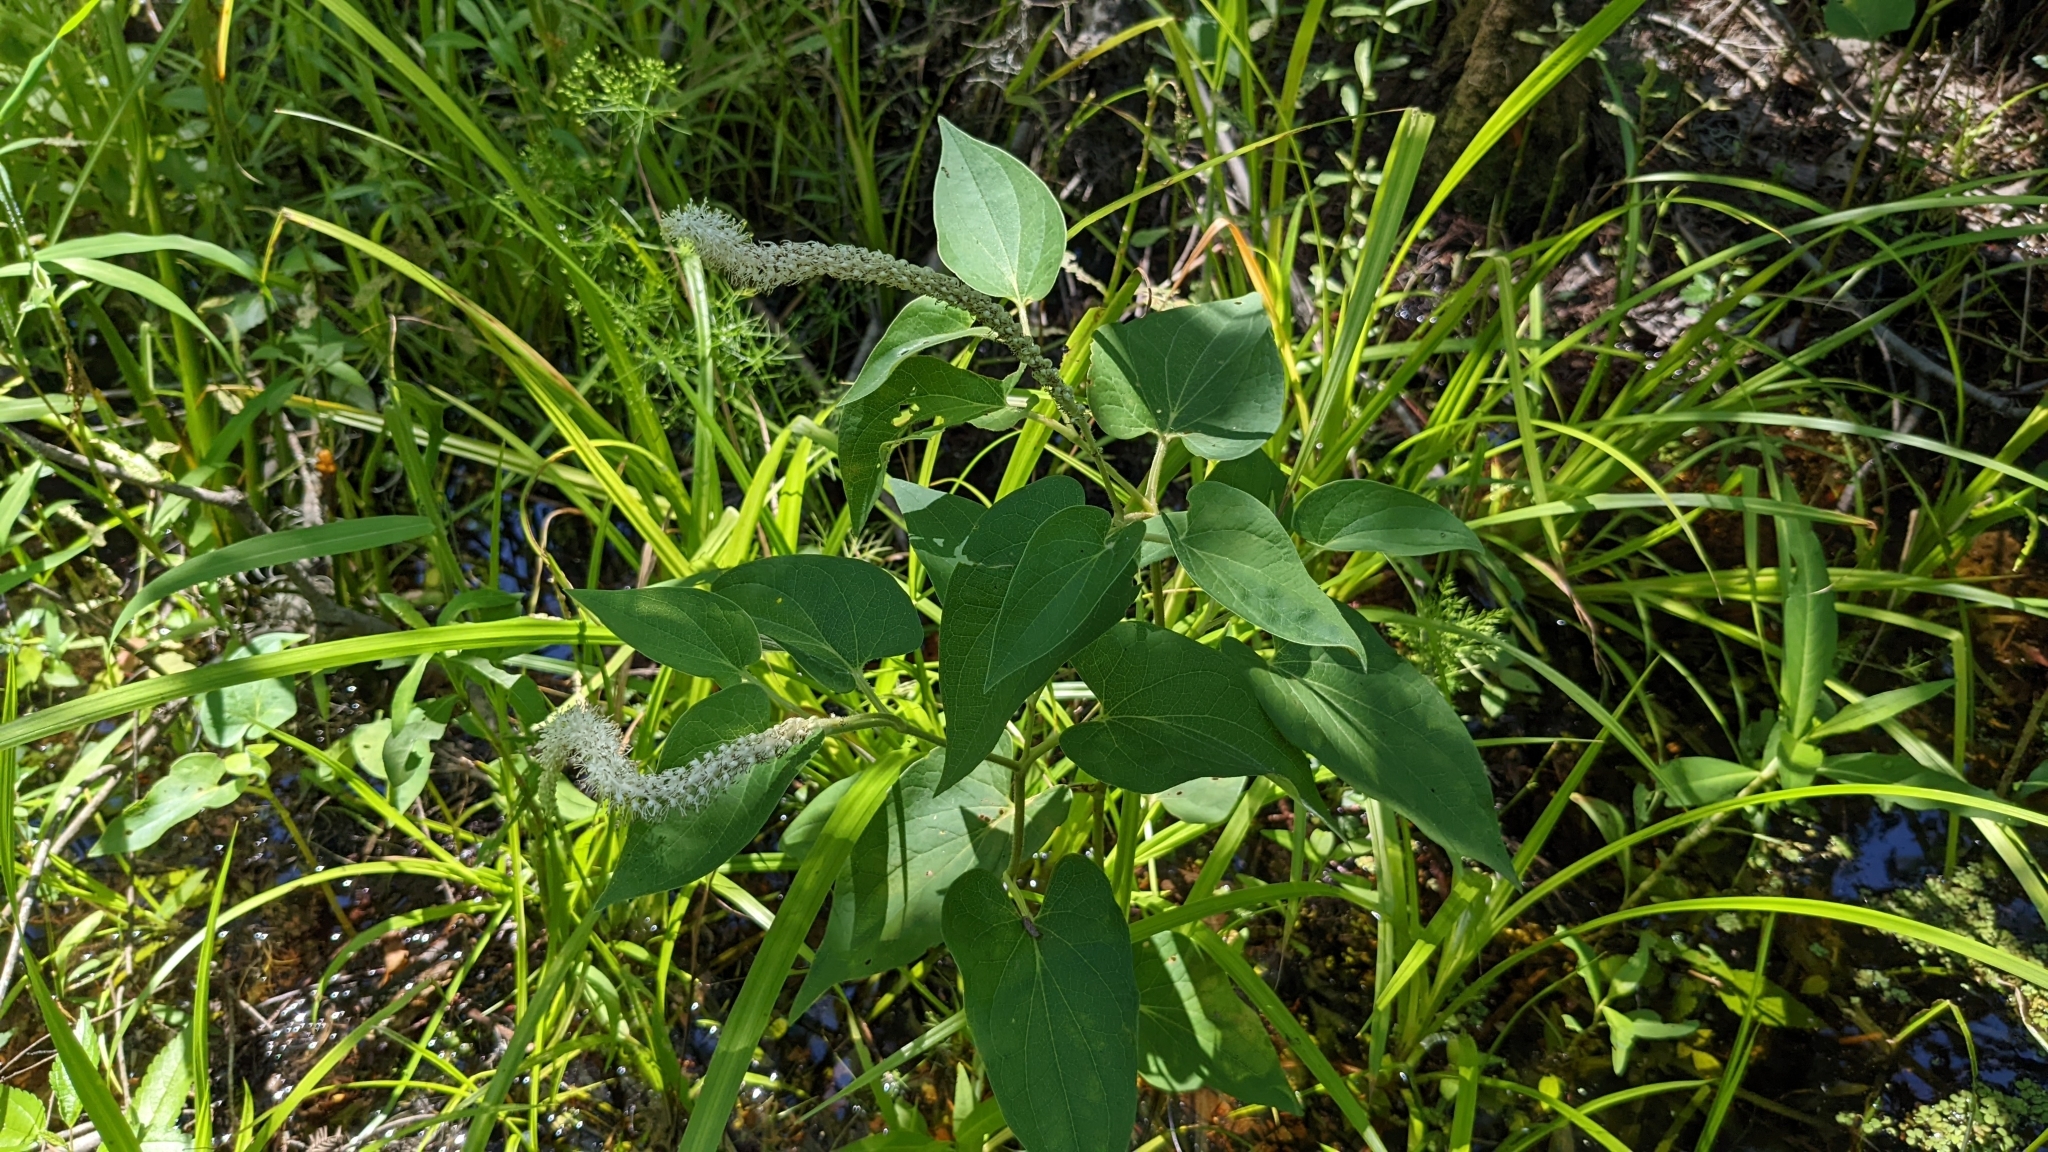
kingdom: Plantae
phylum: Tracheophyta
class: Magnoliopsida
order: Piperales
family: Saururaceae
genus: Saururus
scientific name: Saururus cernuus
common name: Lizard's-tail
